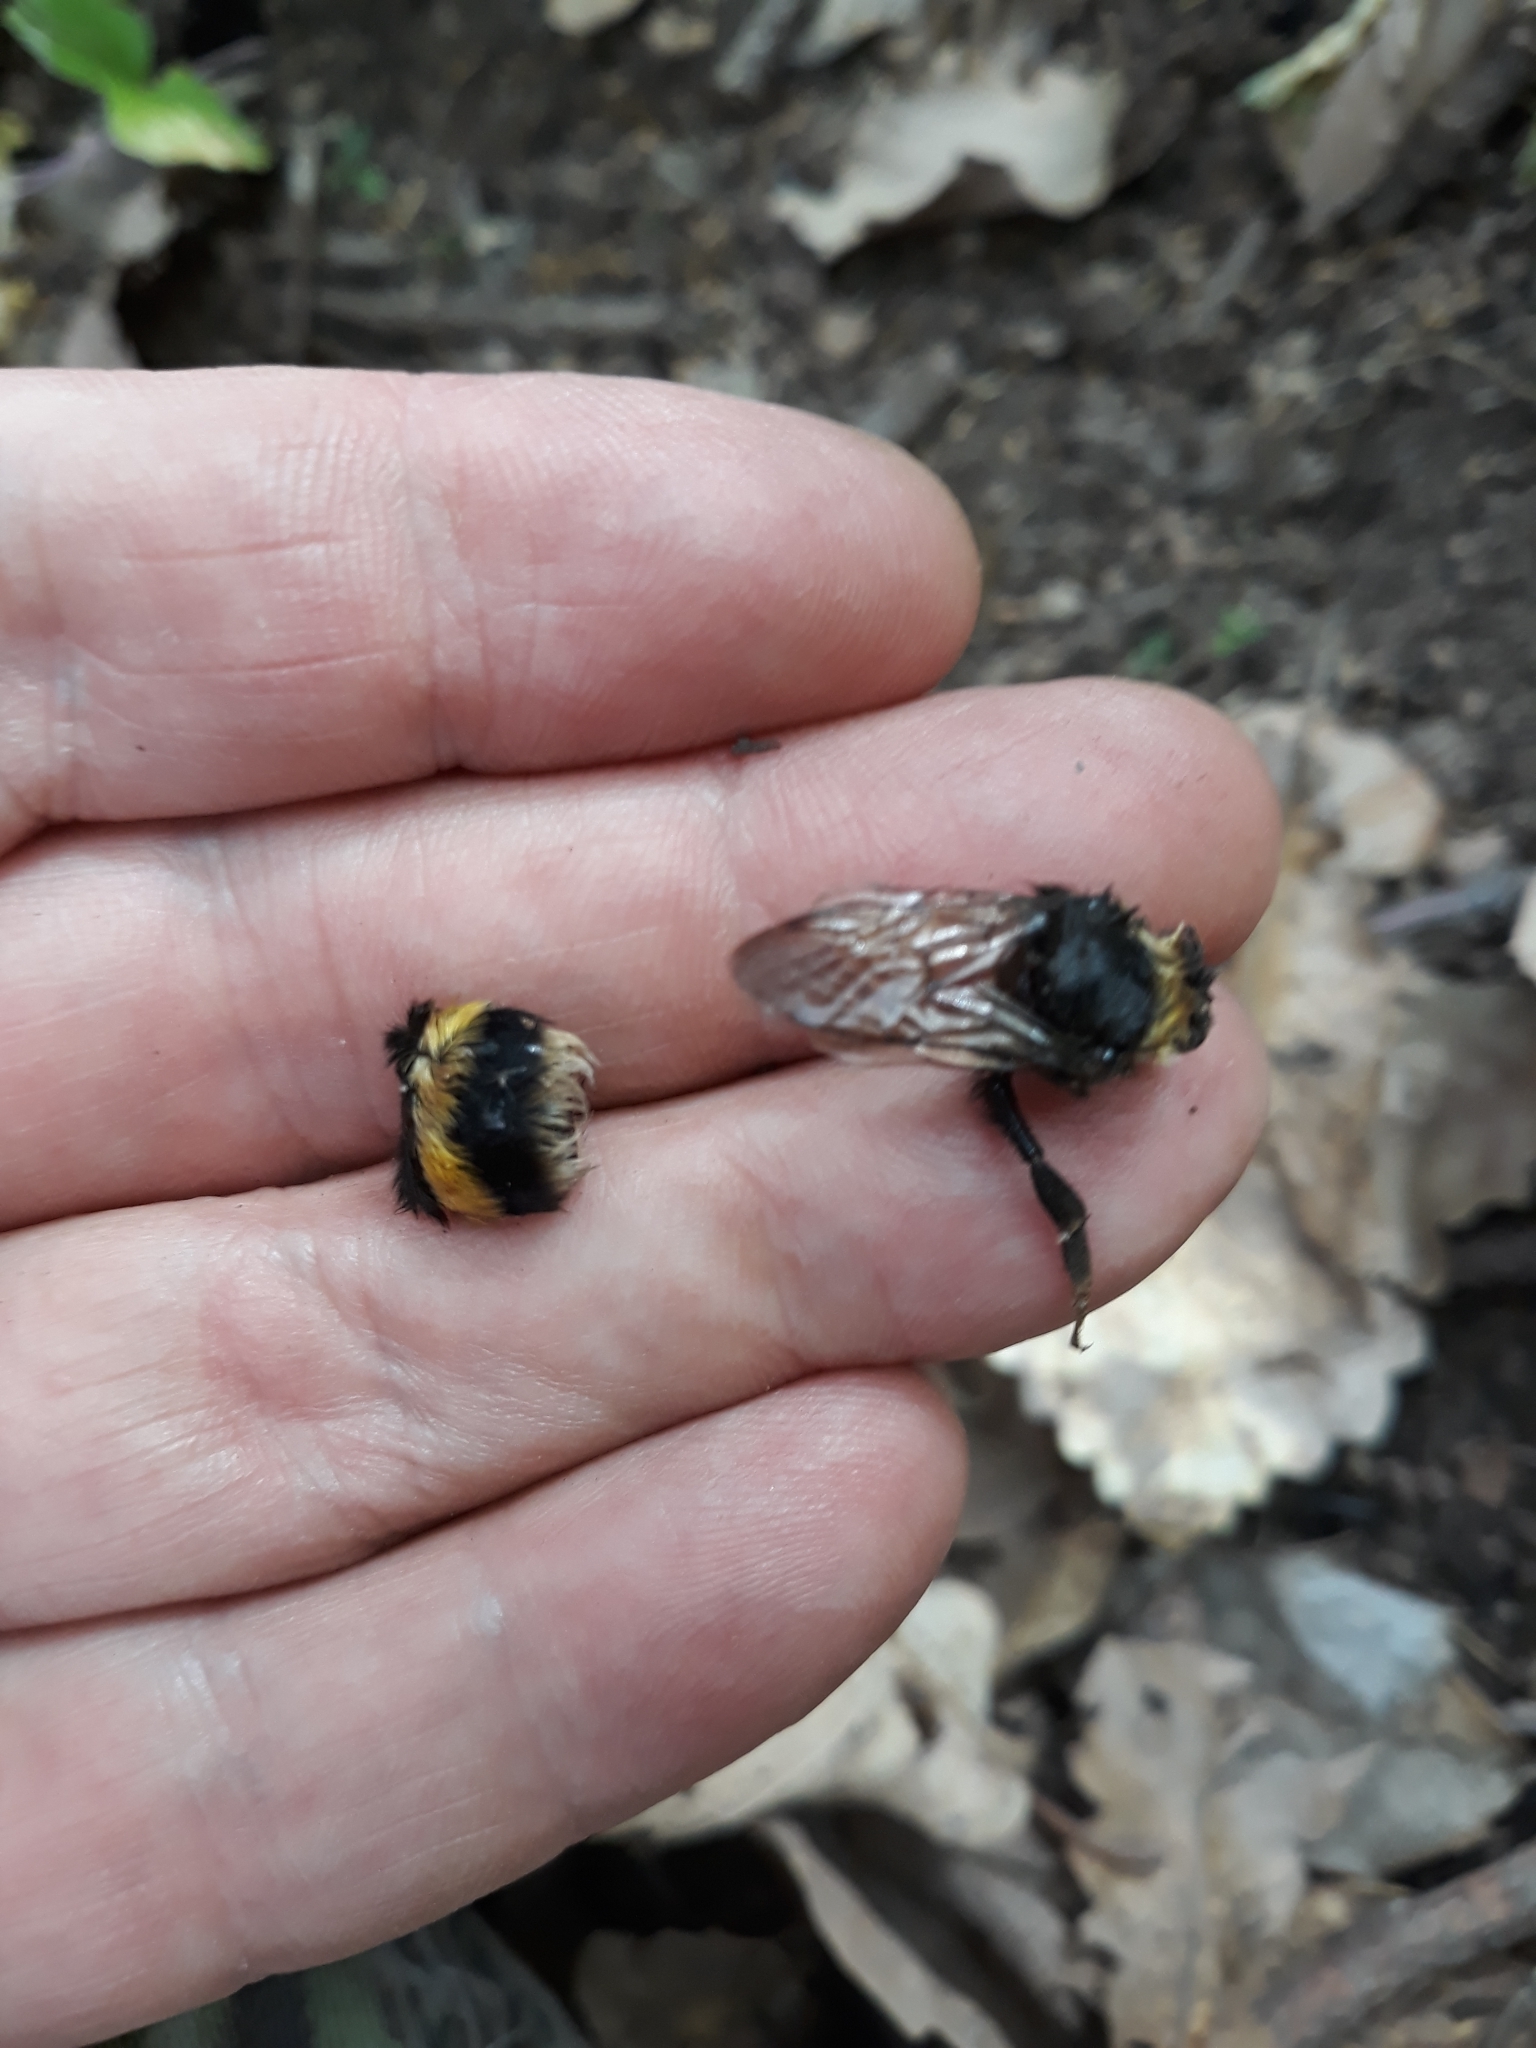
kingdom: Animalia
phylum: Arthropoda
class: Insecta
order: Hymenoptera
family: Apidae
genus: Bombus
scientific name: Bombus terrestris
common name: Buff-tailed bumblebee
